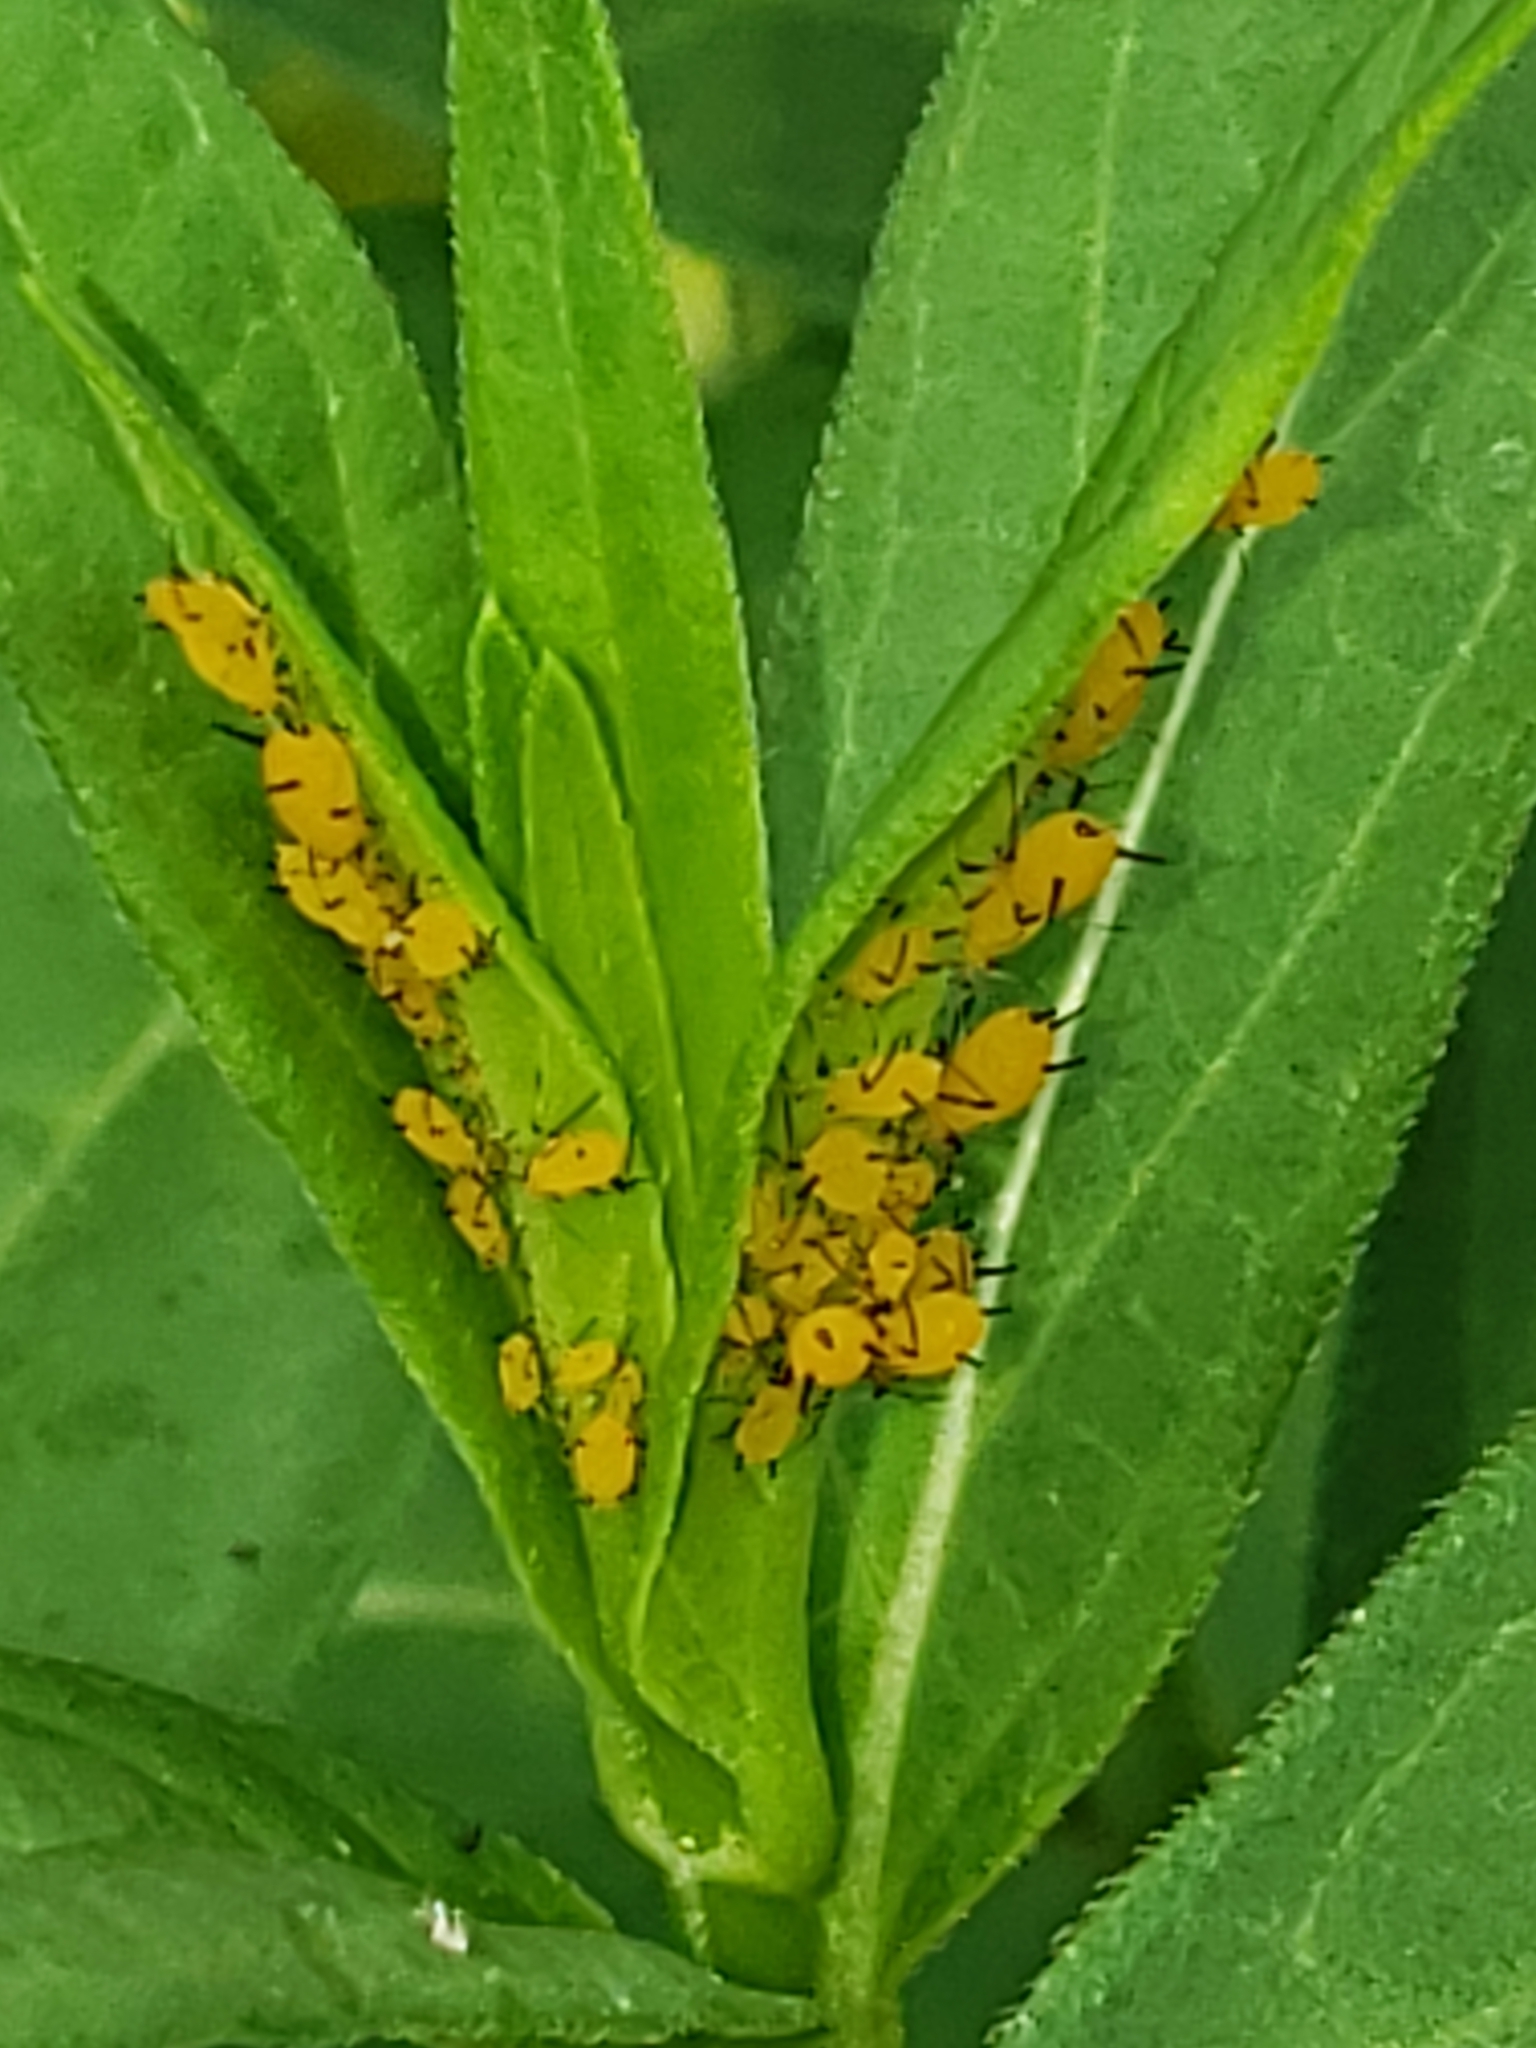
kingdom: Animalia
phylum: Arthropoda
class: Insecta
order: Hemiptera
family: Aphididae
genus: Aphis
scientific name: Aphis nerii
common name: Oleander aphid
